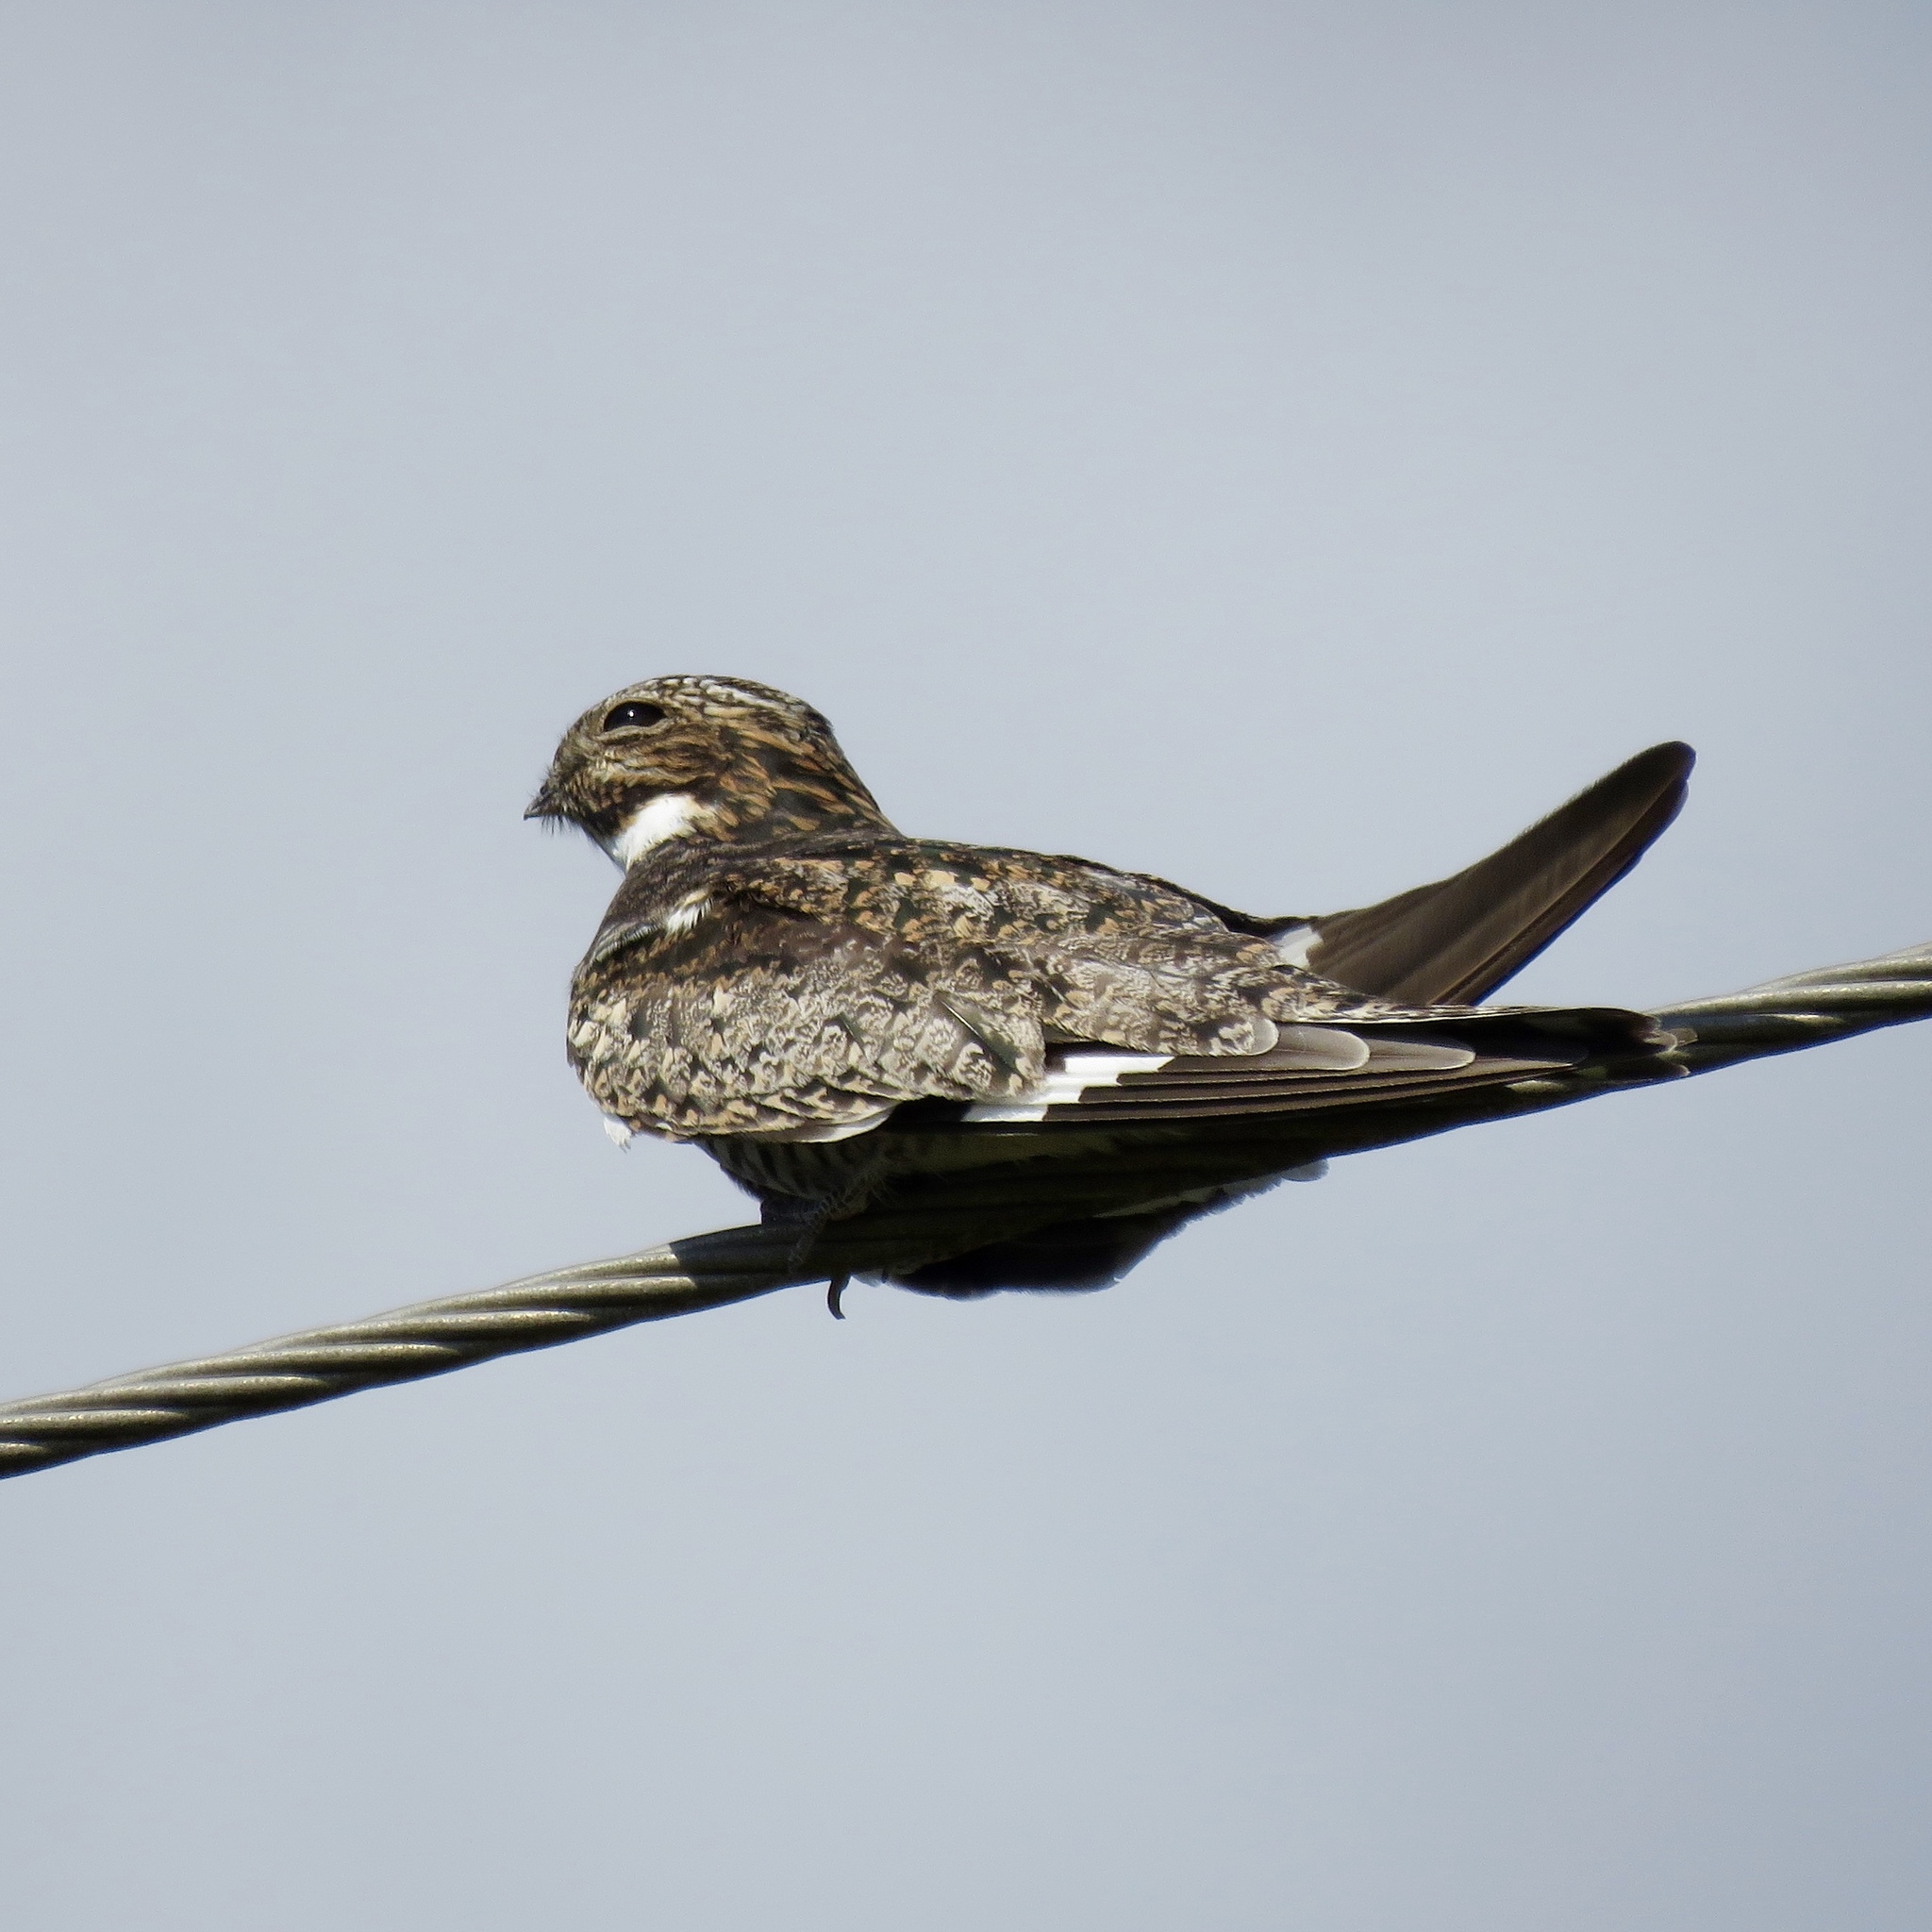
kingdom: Animalia
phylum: Chordata
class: Aves
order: Caprimulgiformes
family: Caprimulgidae
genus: Chordeiles
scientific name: Chordeiles minor
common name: Common nighthawk
